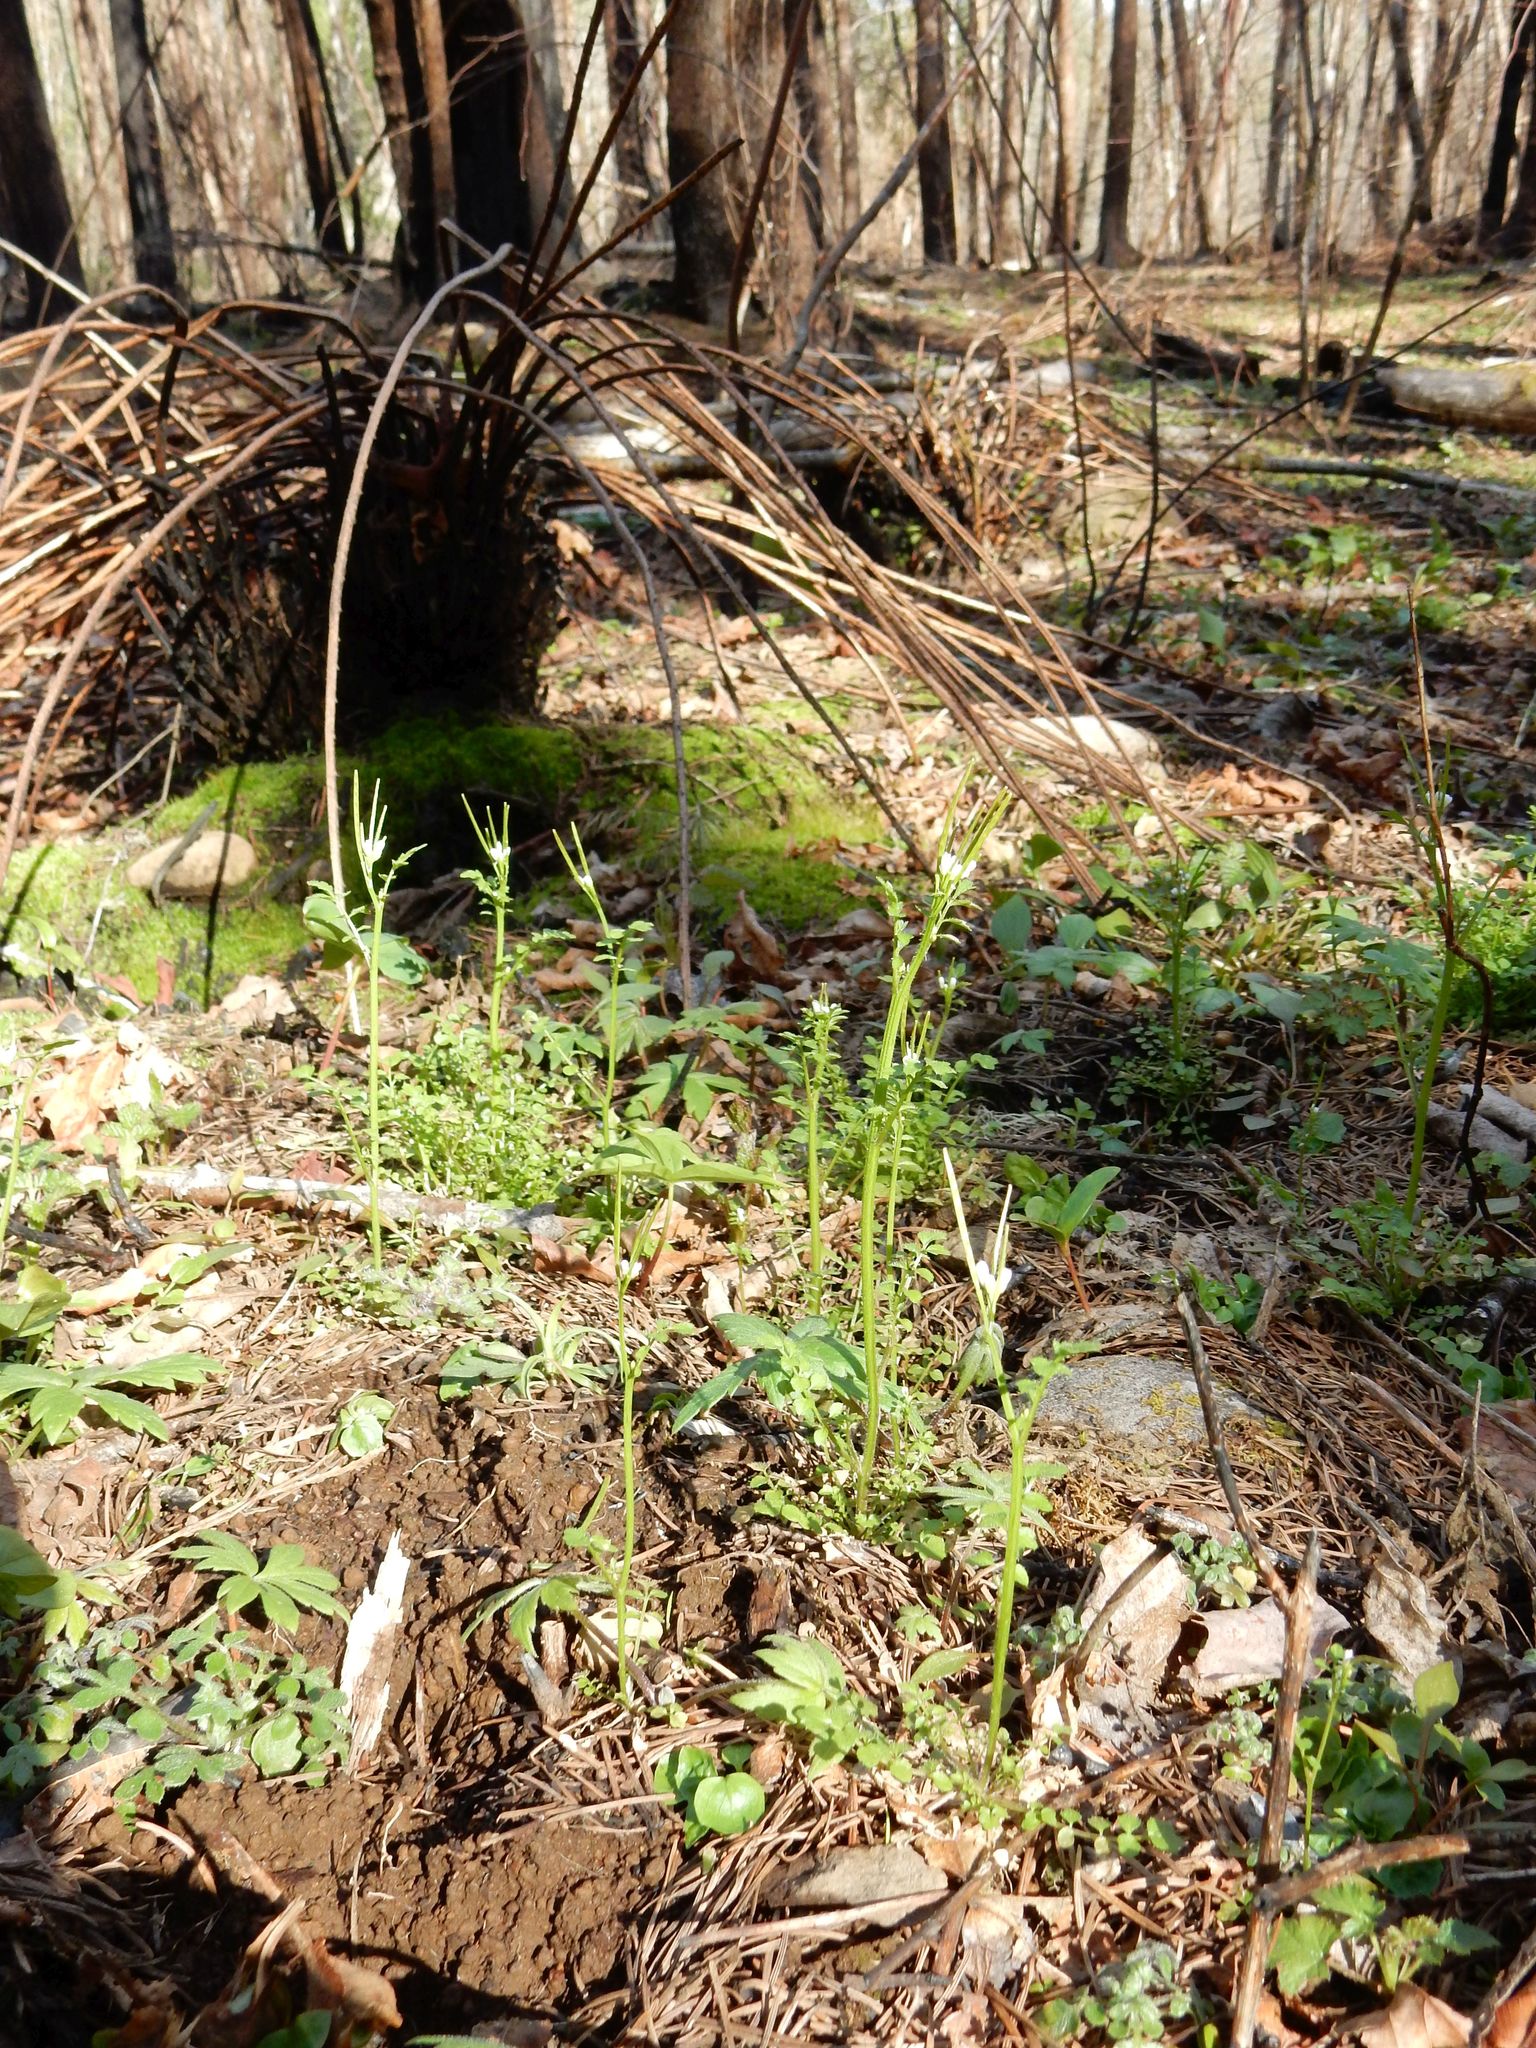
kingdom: Plantae
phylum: Tracheophyta
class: Magnoliopsida
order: Brassicales
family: Brassicaceae
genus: Cardamine
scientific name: Cardamine oligosperma
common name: Idaho bittercress
